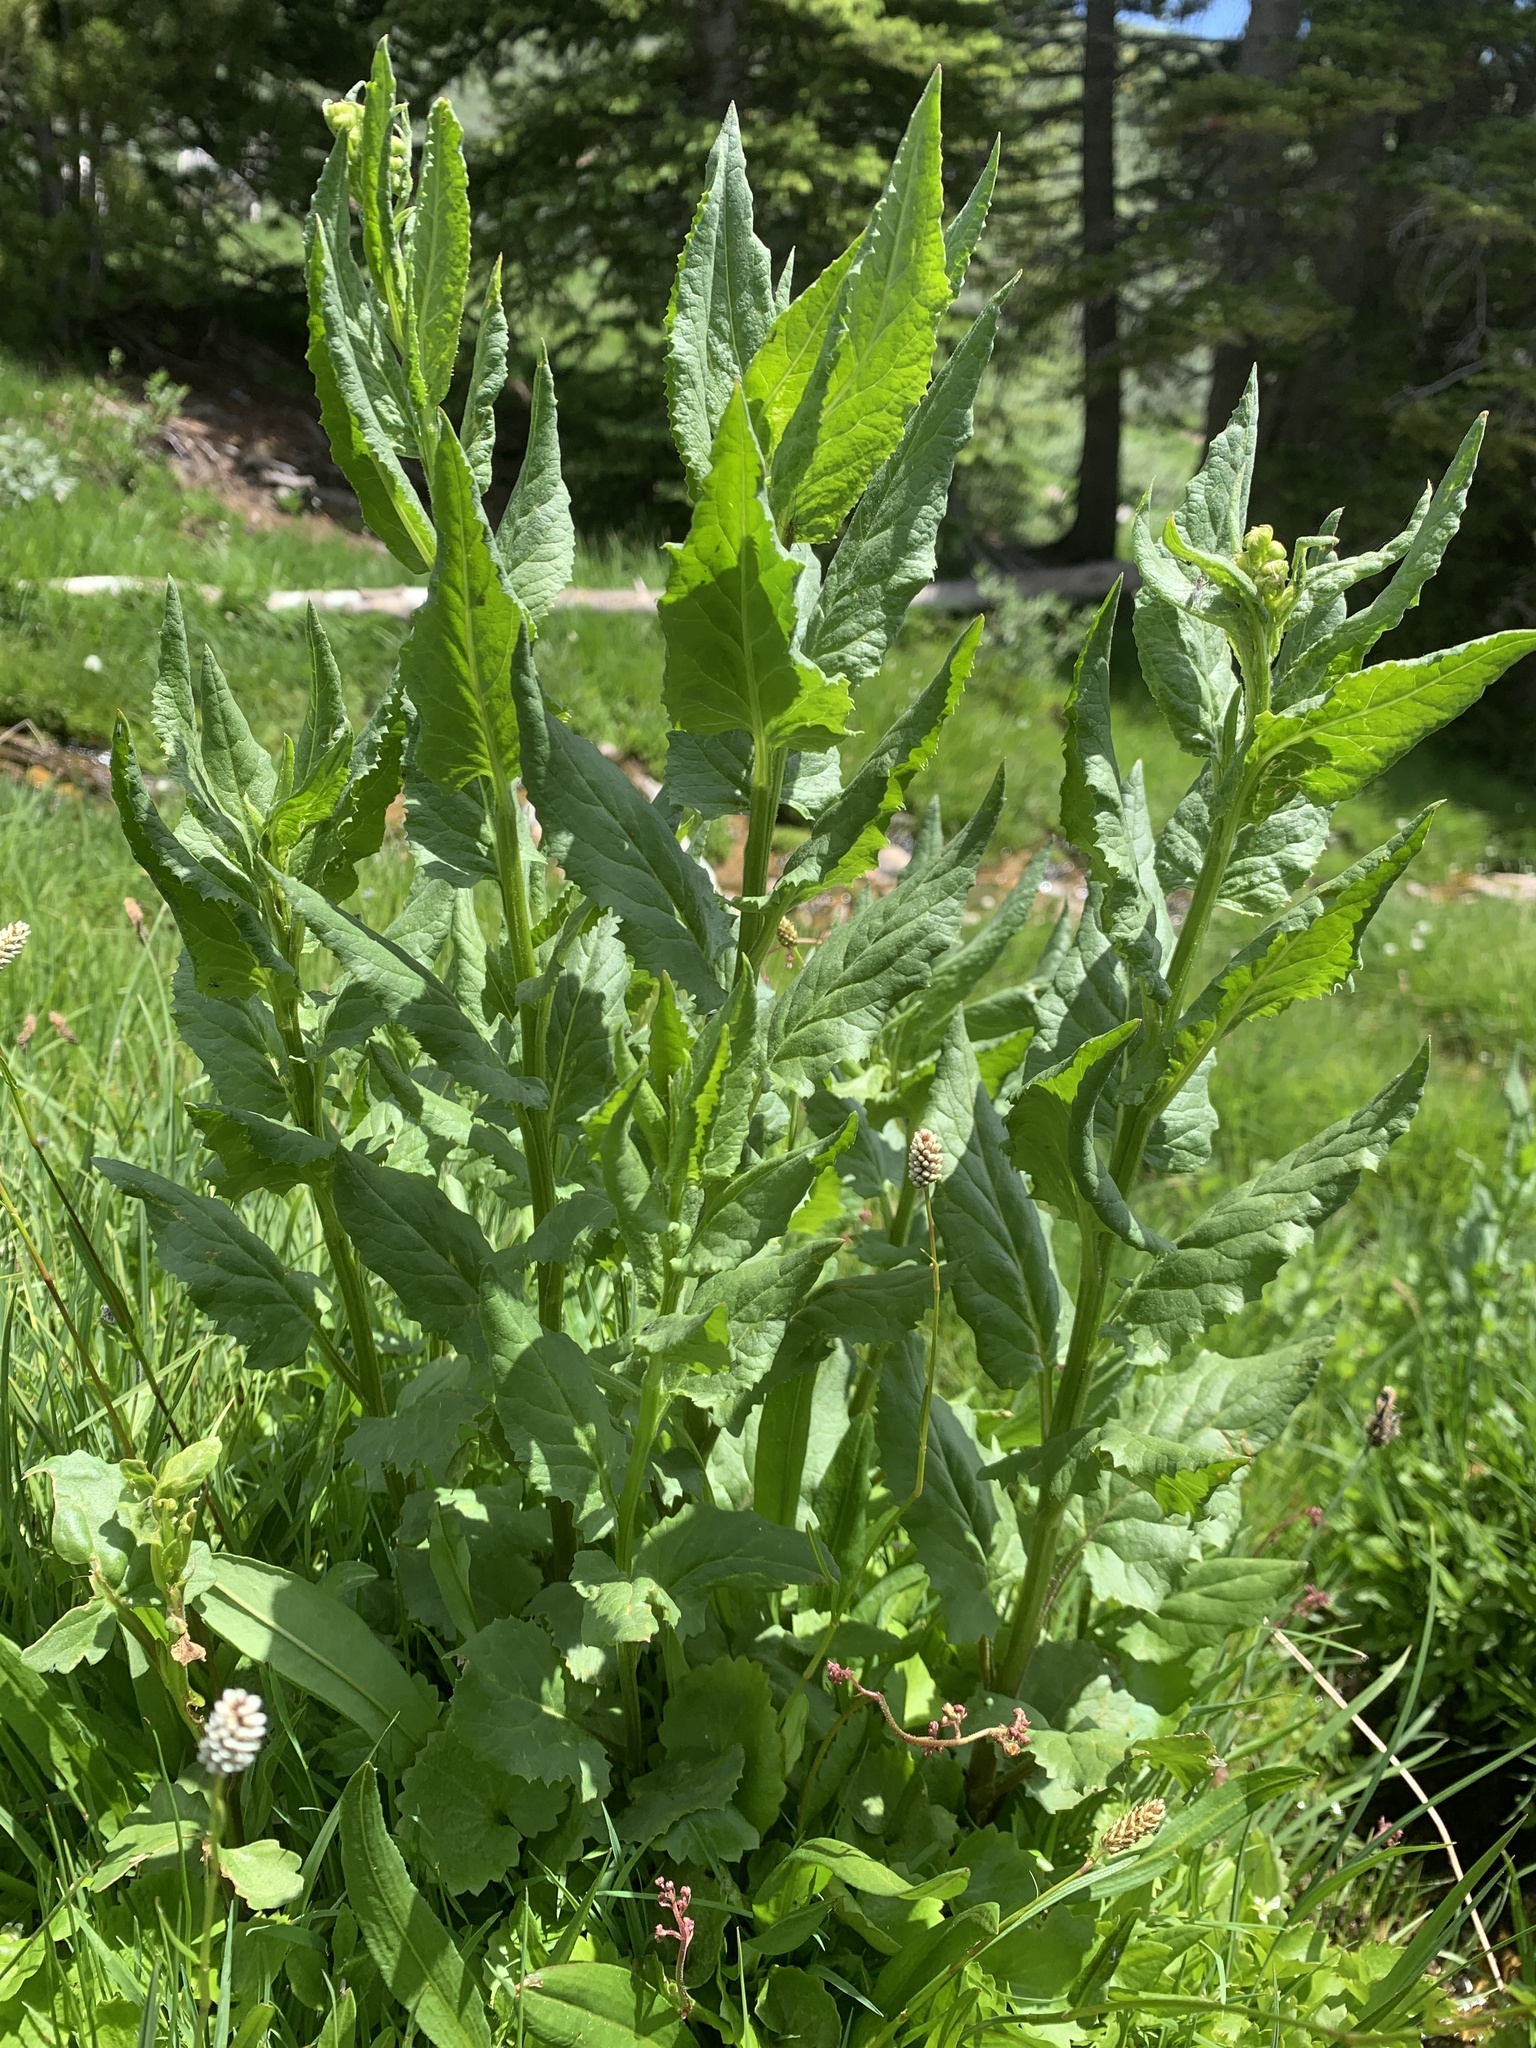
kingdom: Plantae
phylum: Tracheophyta
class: Magnoliopsida
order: Asterales
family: Asteraceae
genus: Senecio
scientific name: Senecio triangularis
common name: Arrowleaf butterweed
